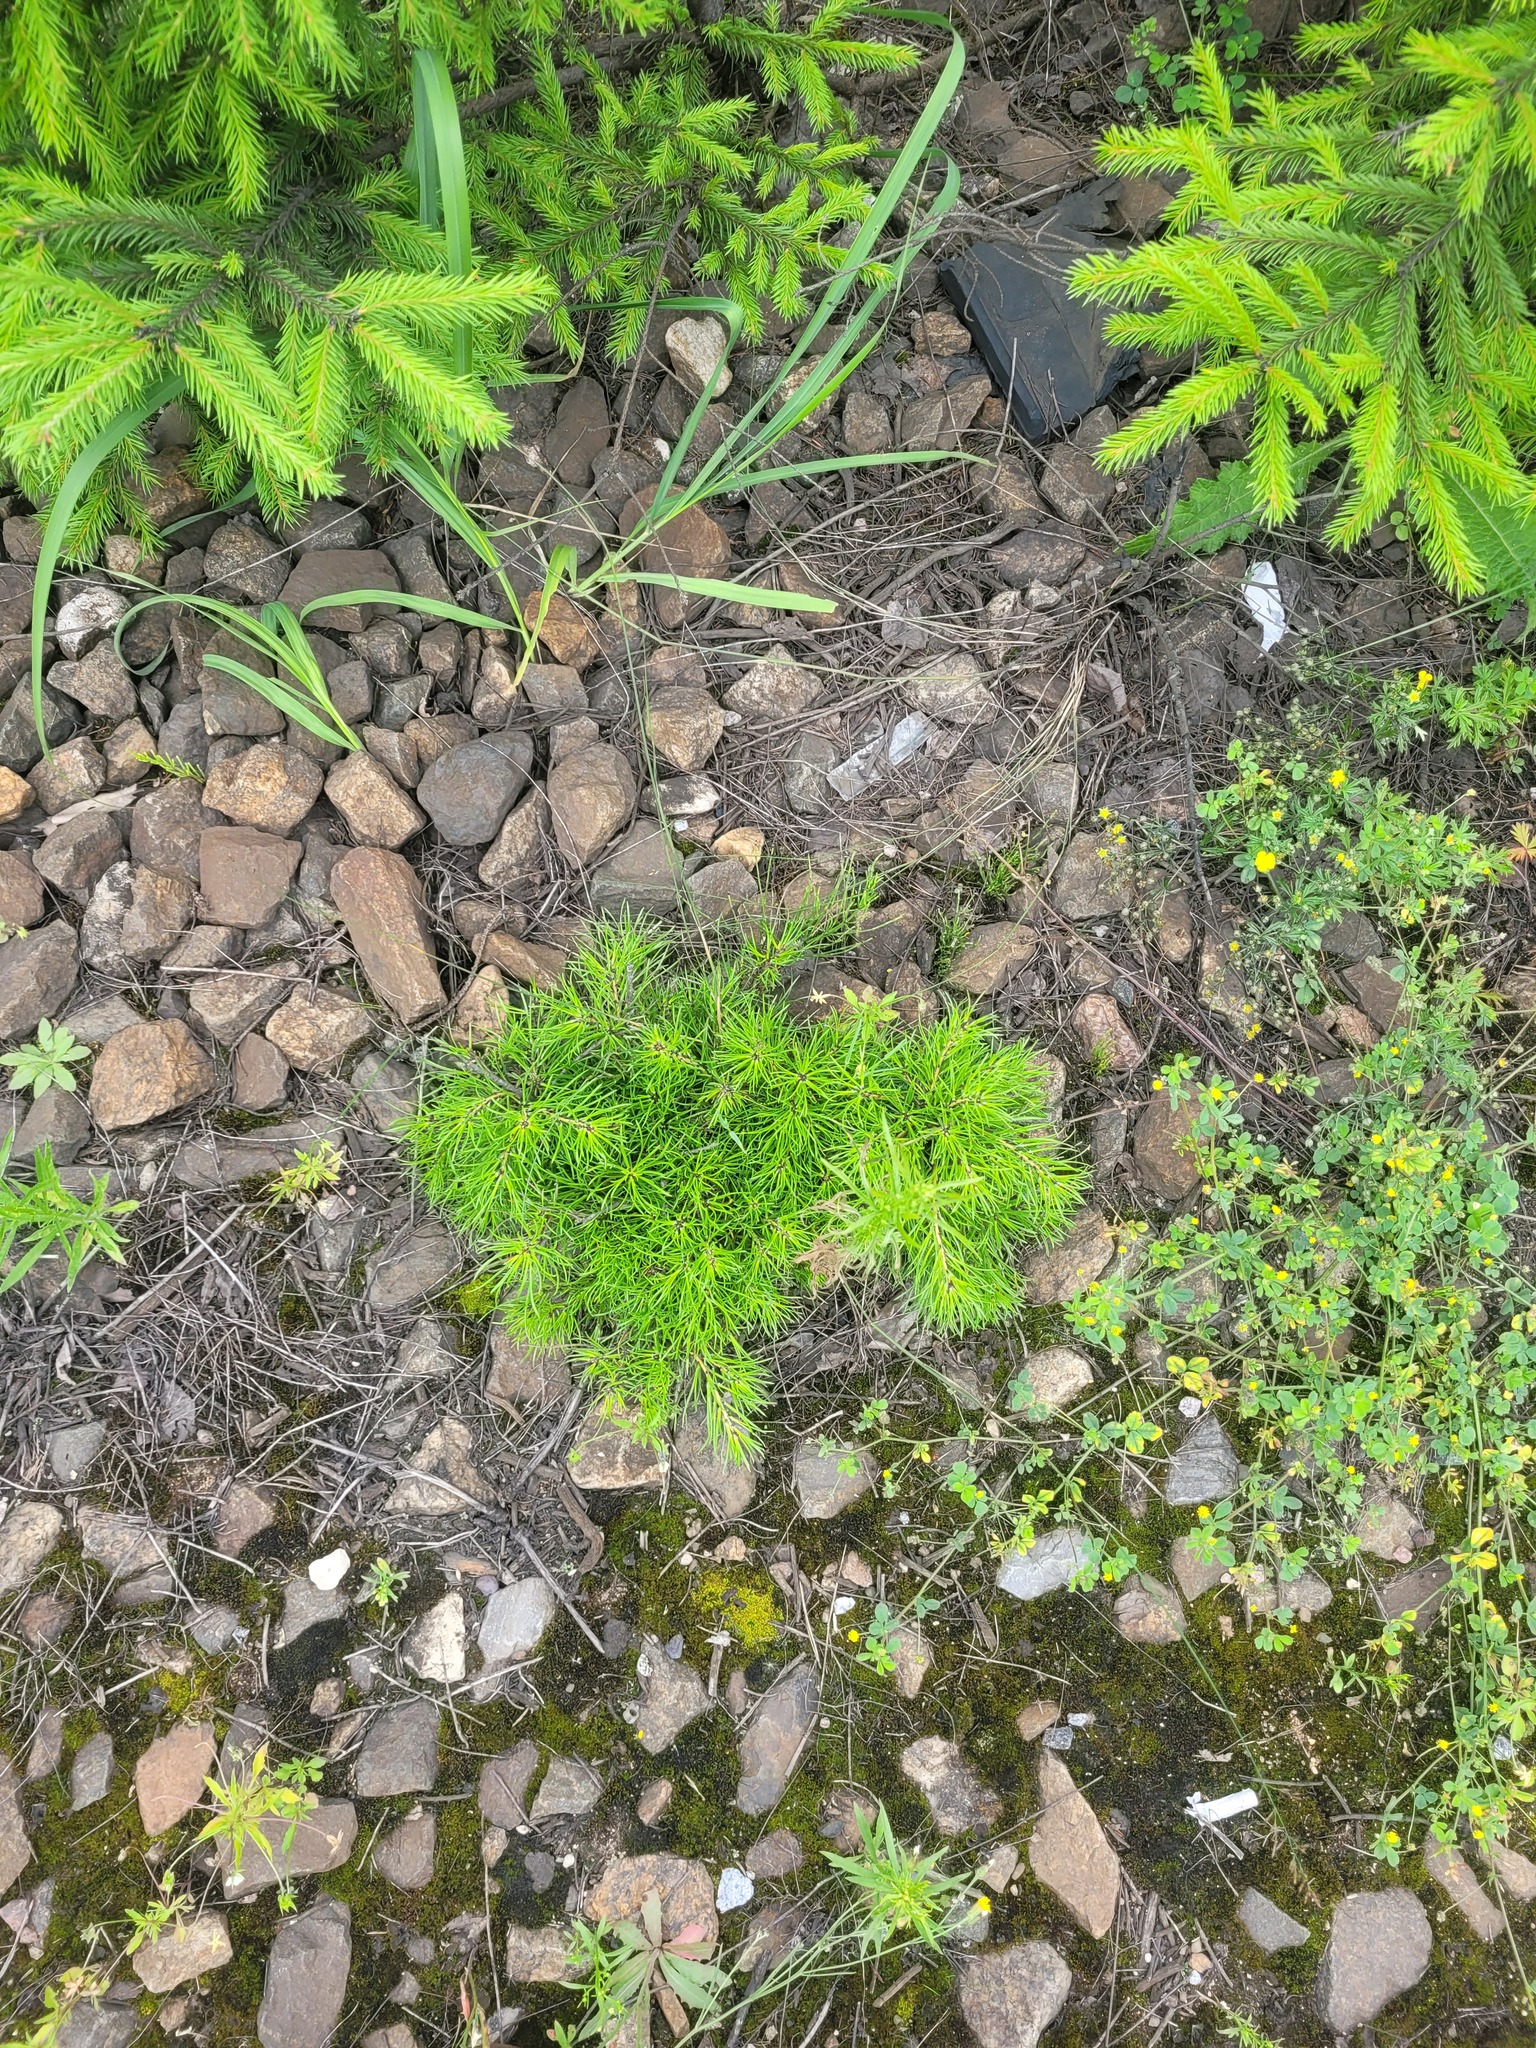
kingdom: Plantae
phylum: Tracheophyta
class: Pinopsida
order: Pinales
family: Pinaceae
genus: Pinus
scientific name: Pinus sylvestris
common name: Scots pine
